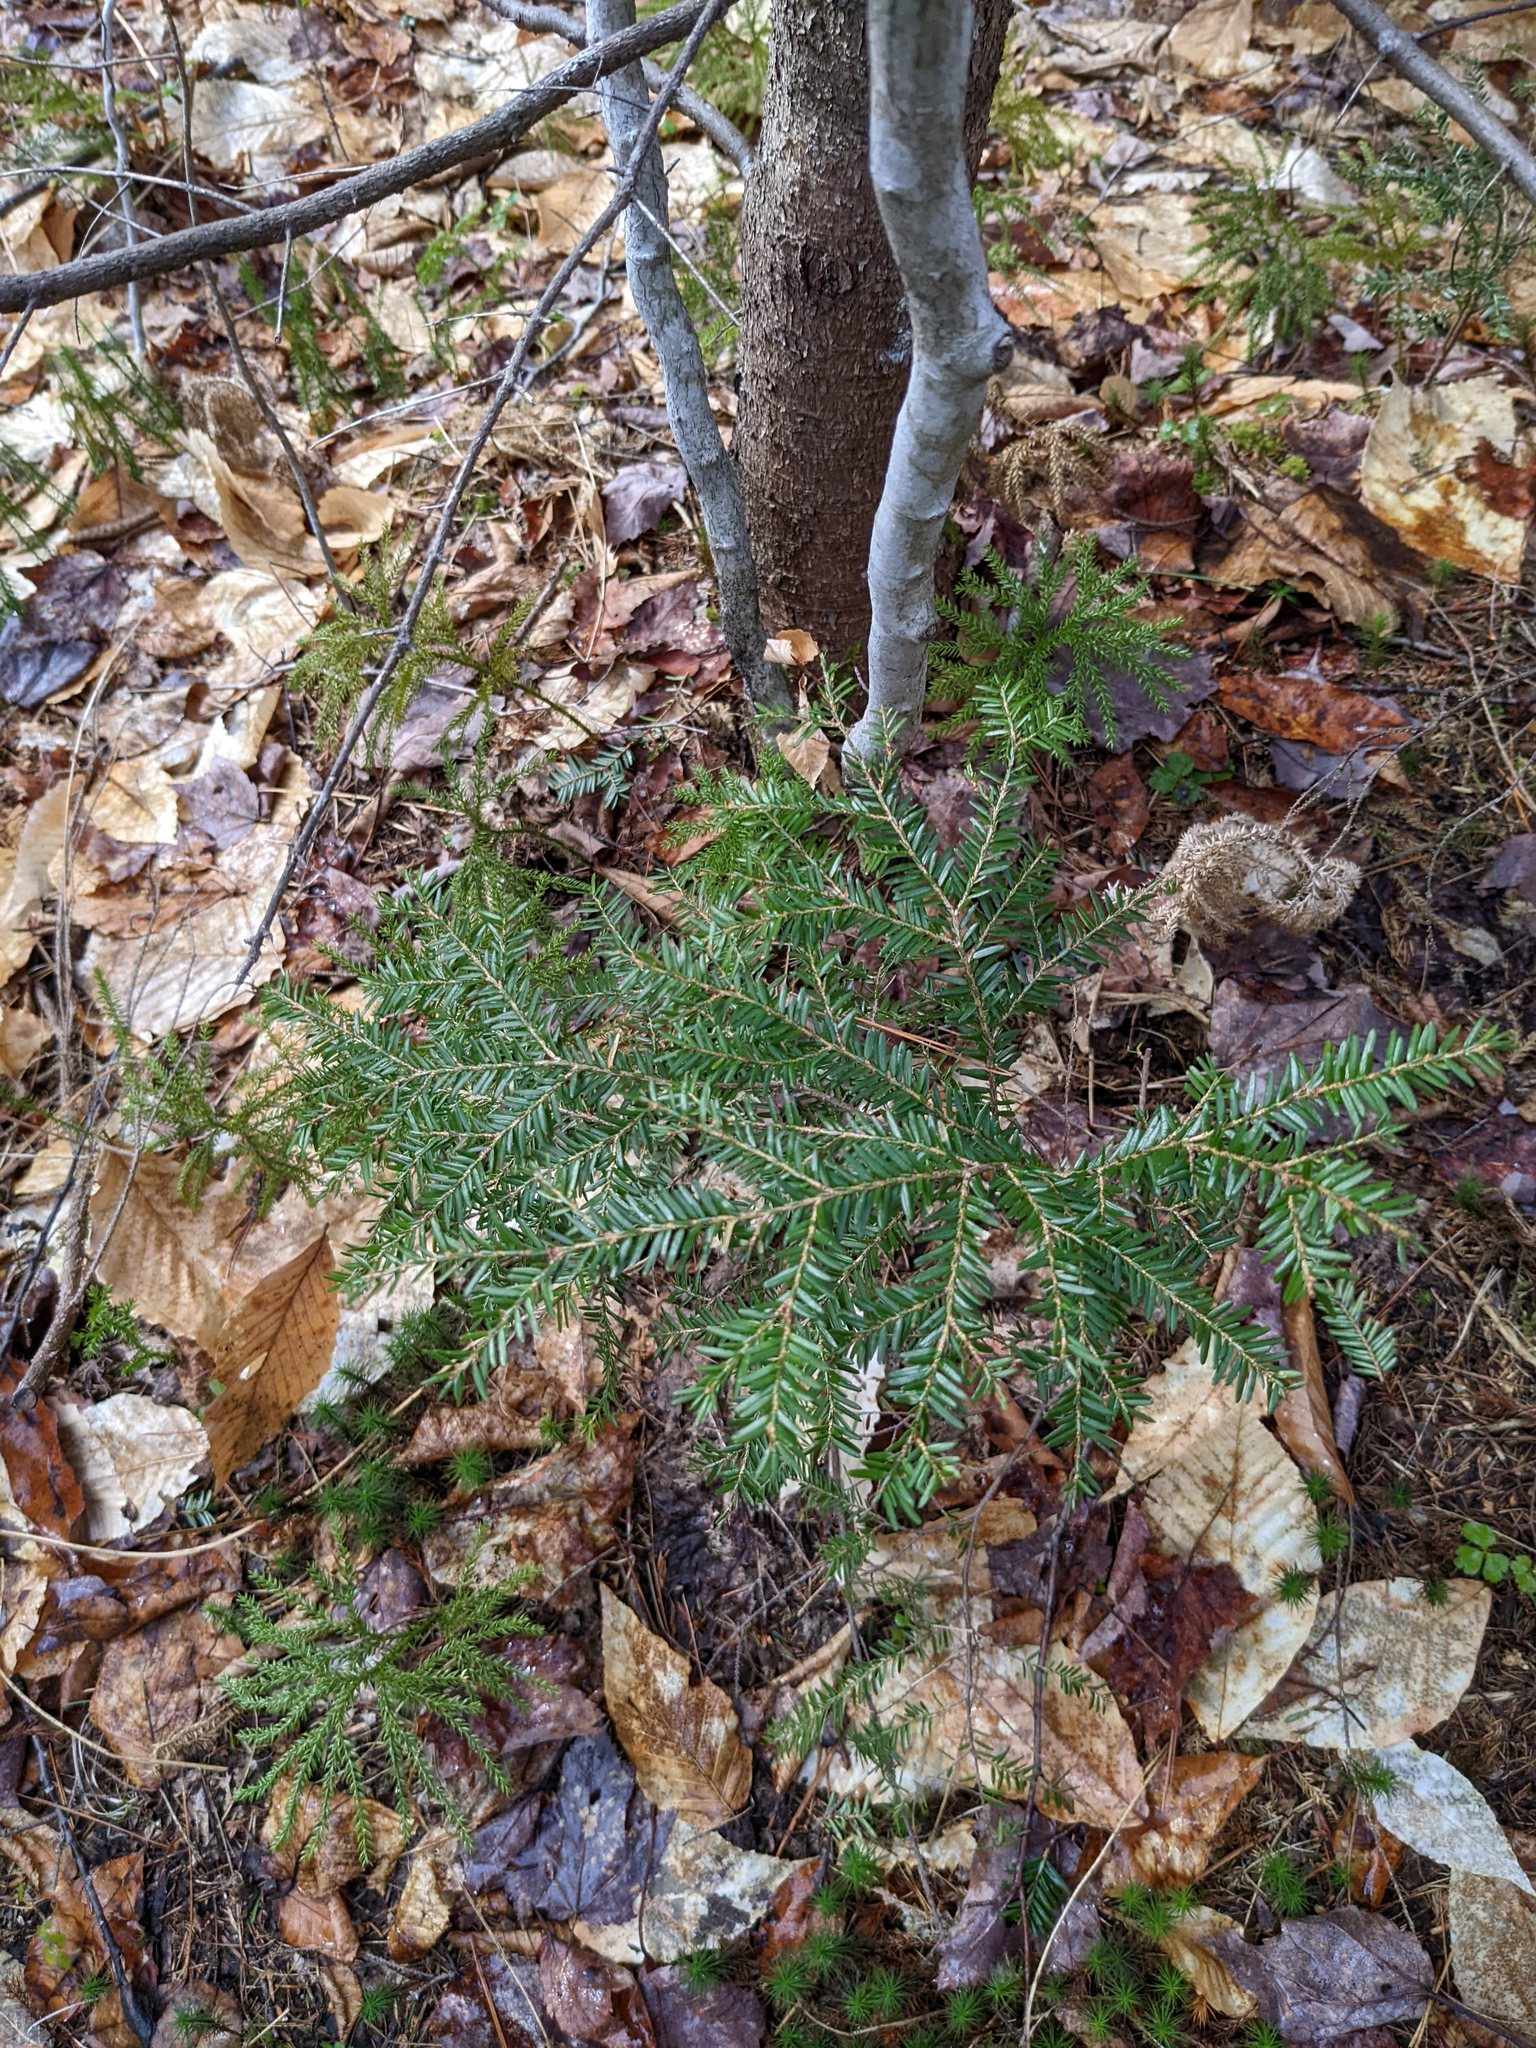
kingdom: Plantae
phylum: Tracheophyta
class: Pinopsida
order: Pinales
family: Pinaceae
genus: Tsuga
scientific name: Tsuga canadensis
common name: Eastern hemlock
